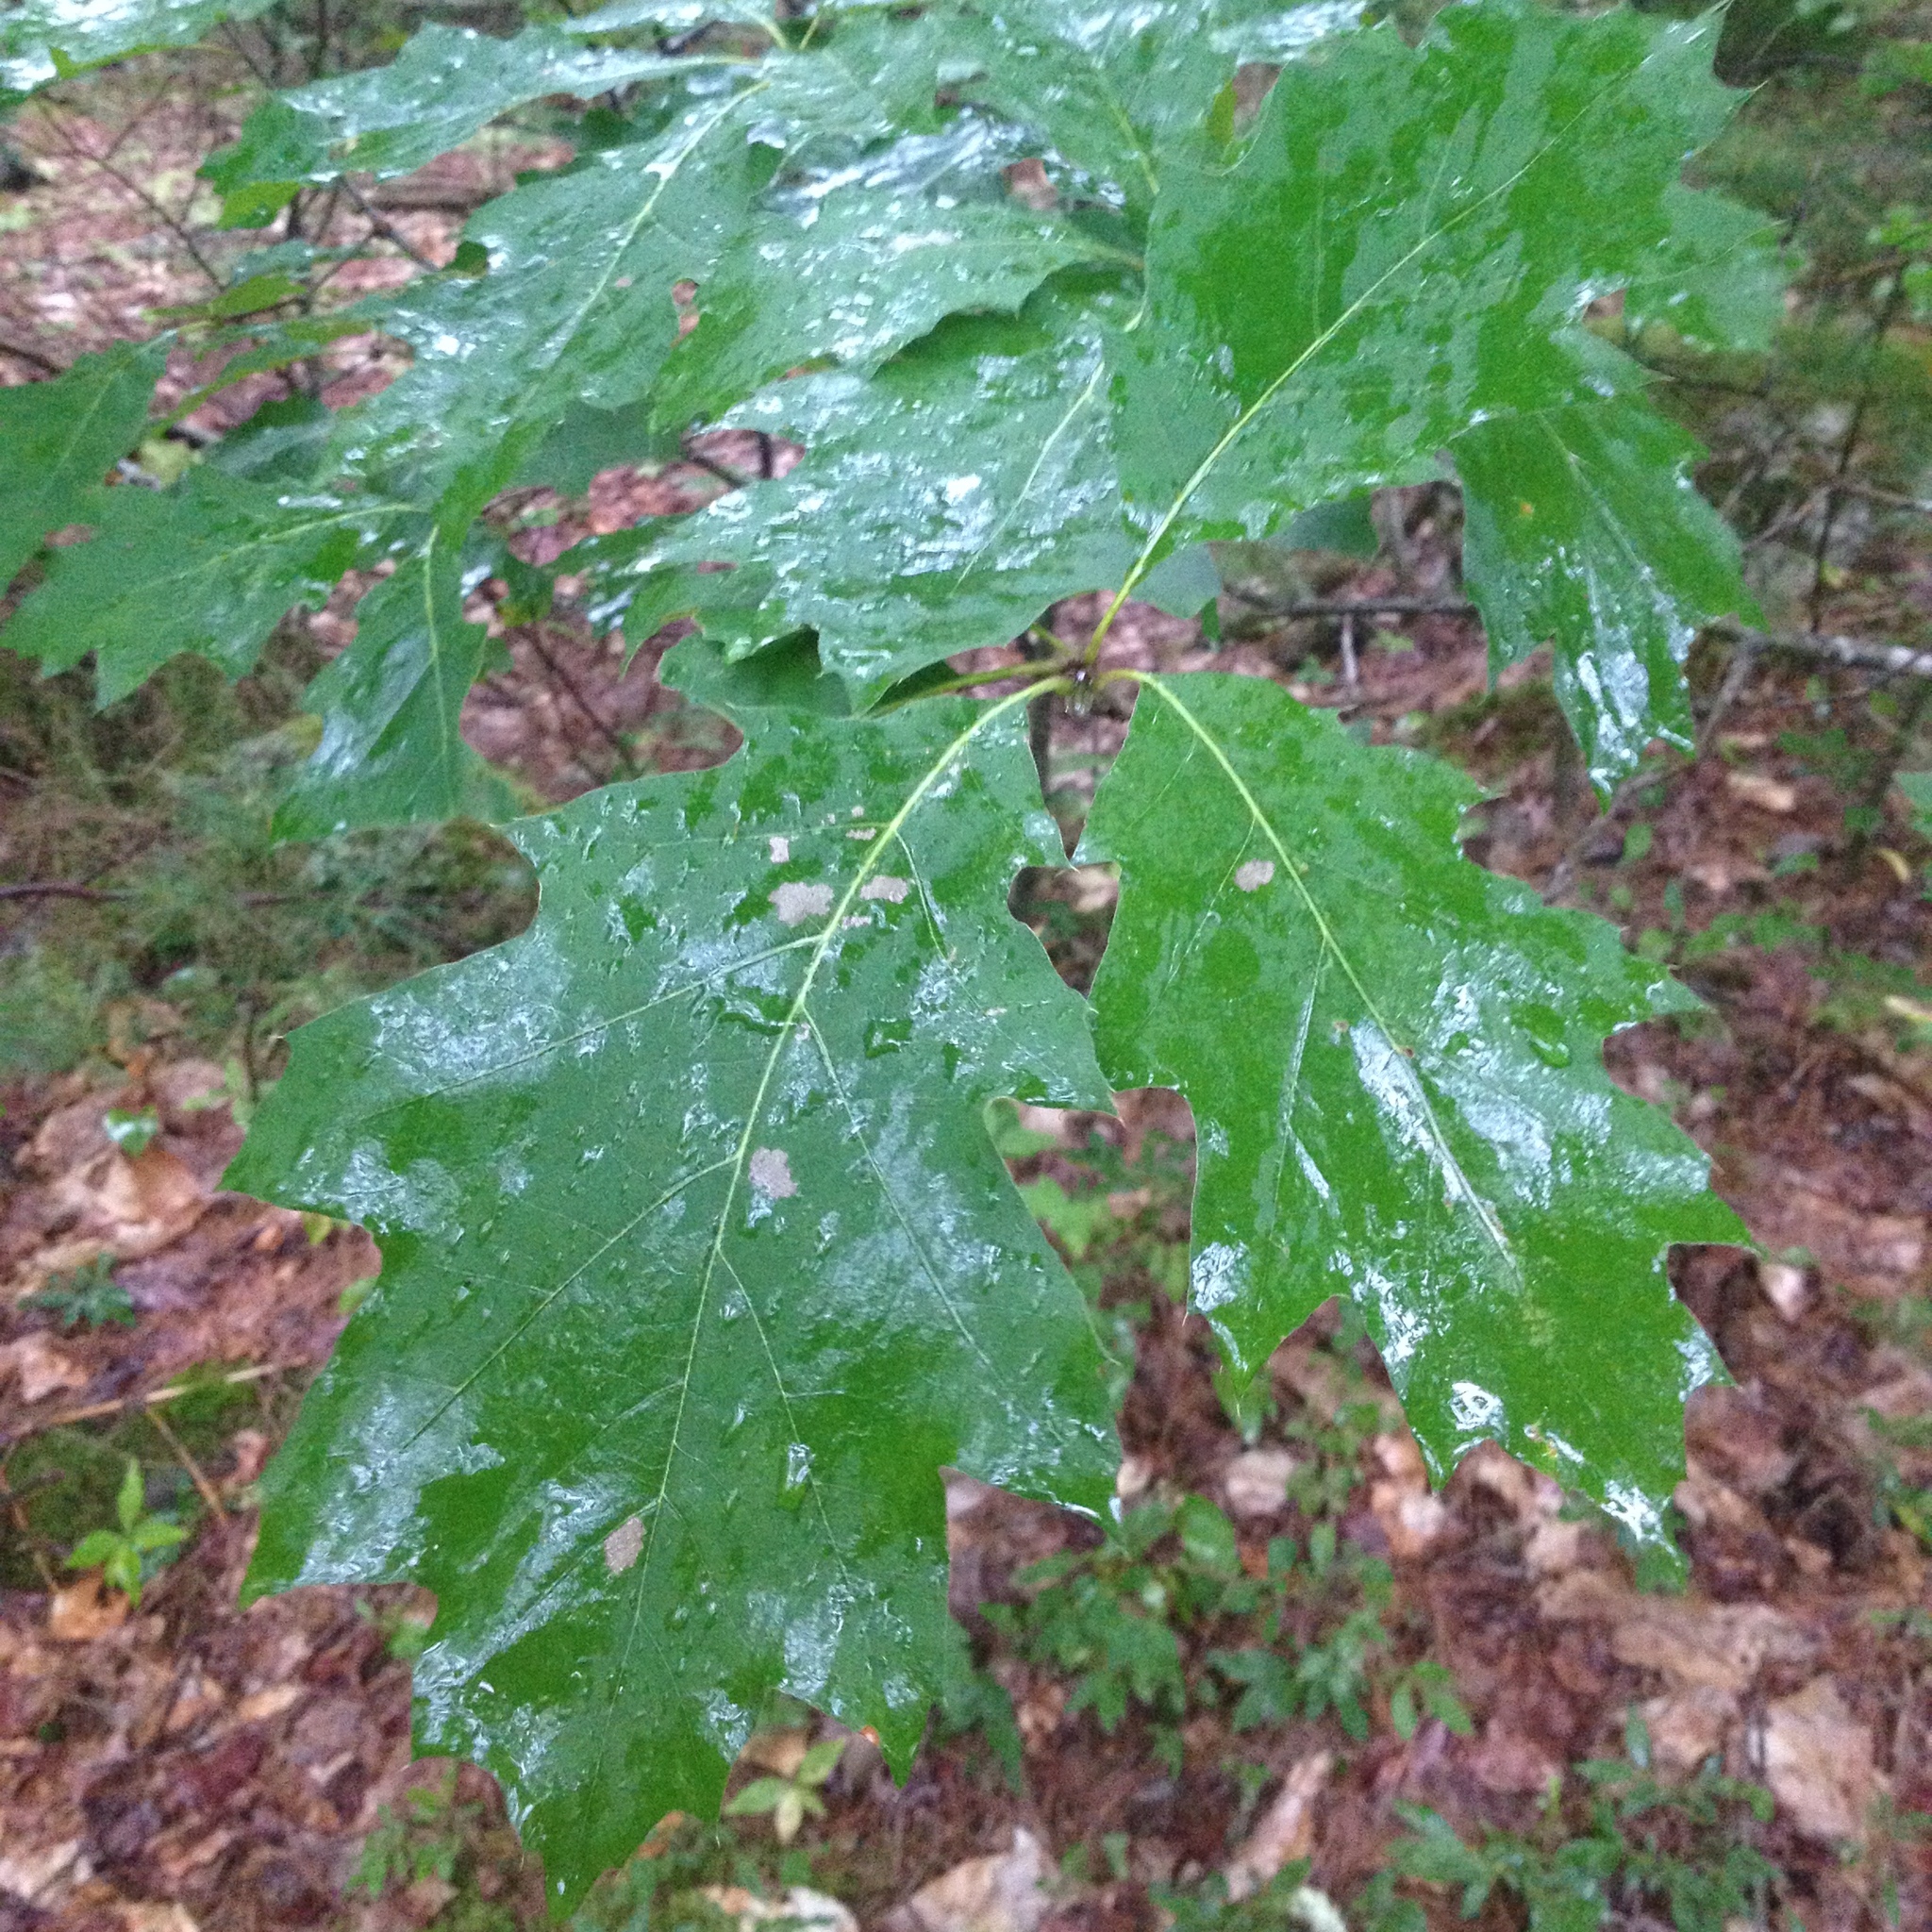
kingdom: Plantae
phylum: Tracheophyta
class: Magnoliopsida
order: Fagales
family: Fagaceae
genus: Quercus
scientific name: Quercus rubra
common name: Red oak
